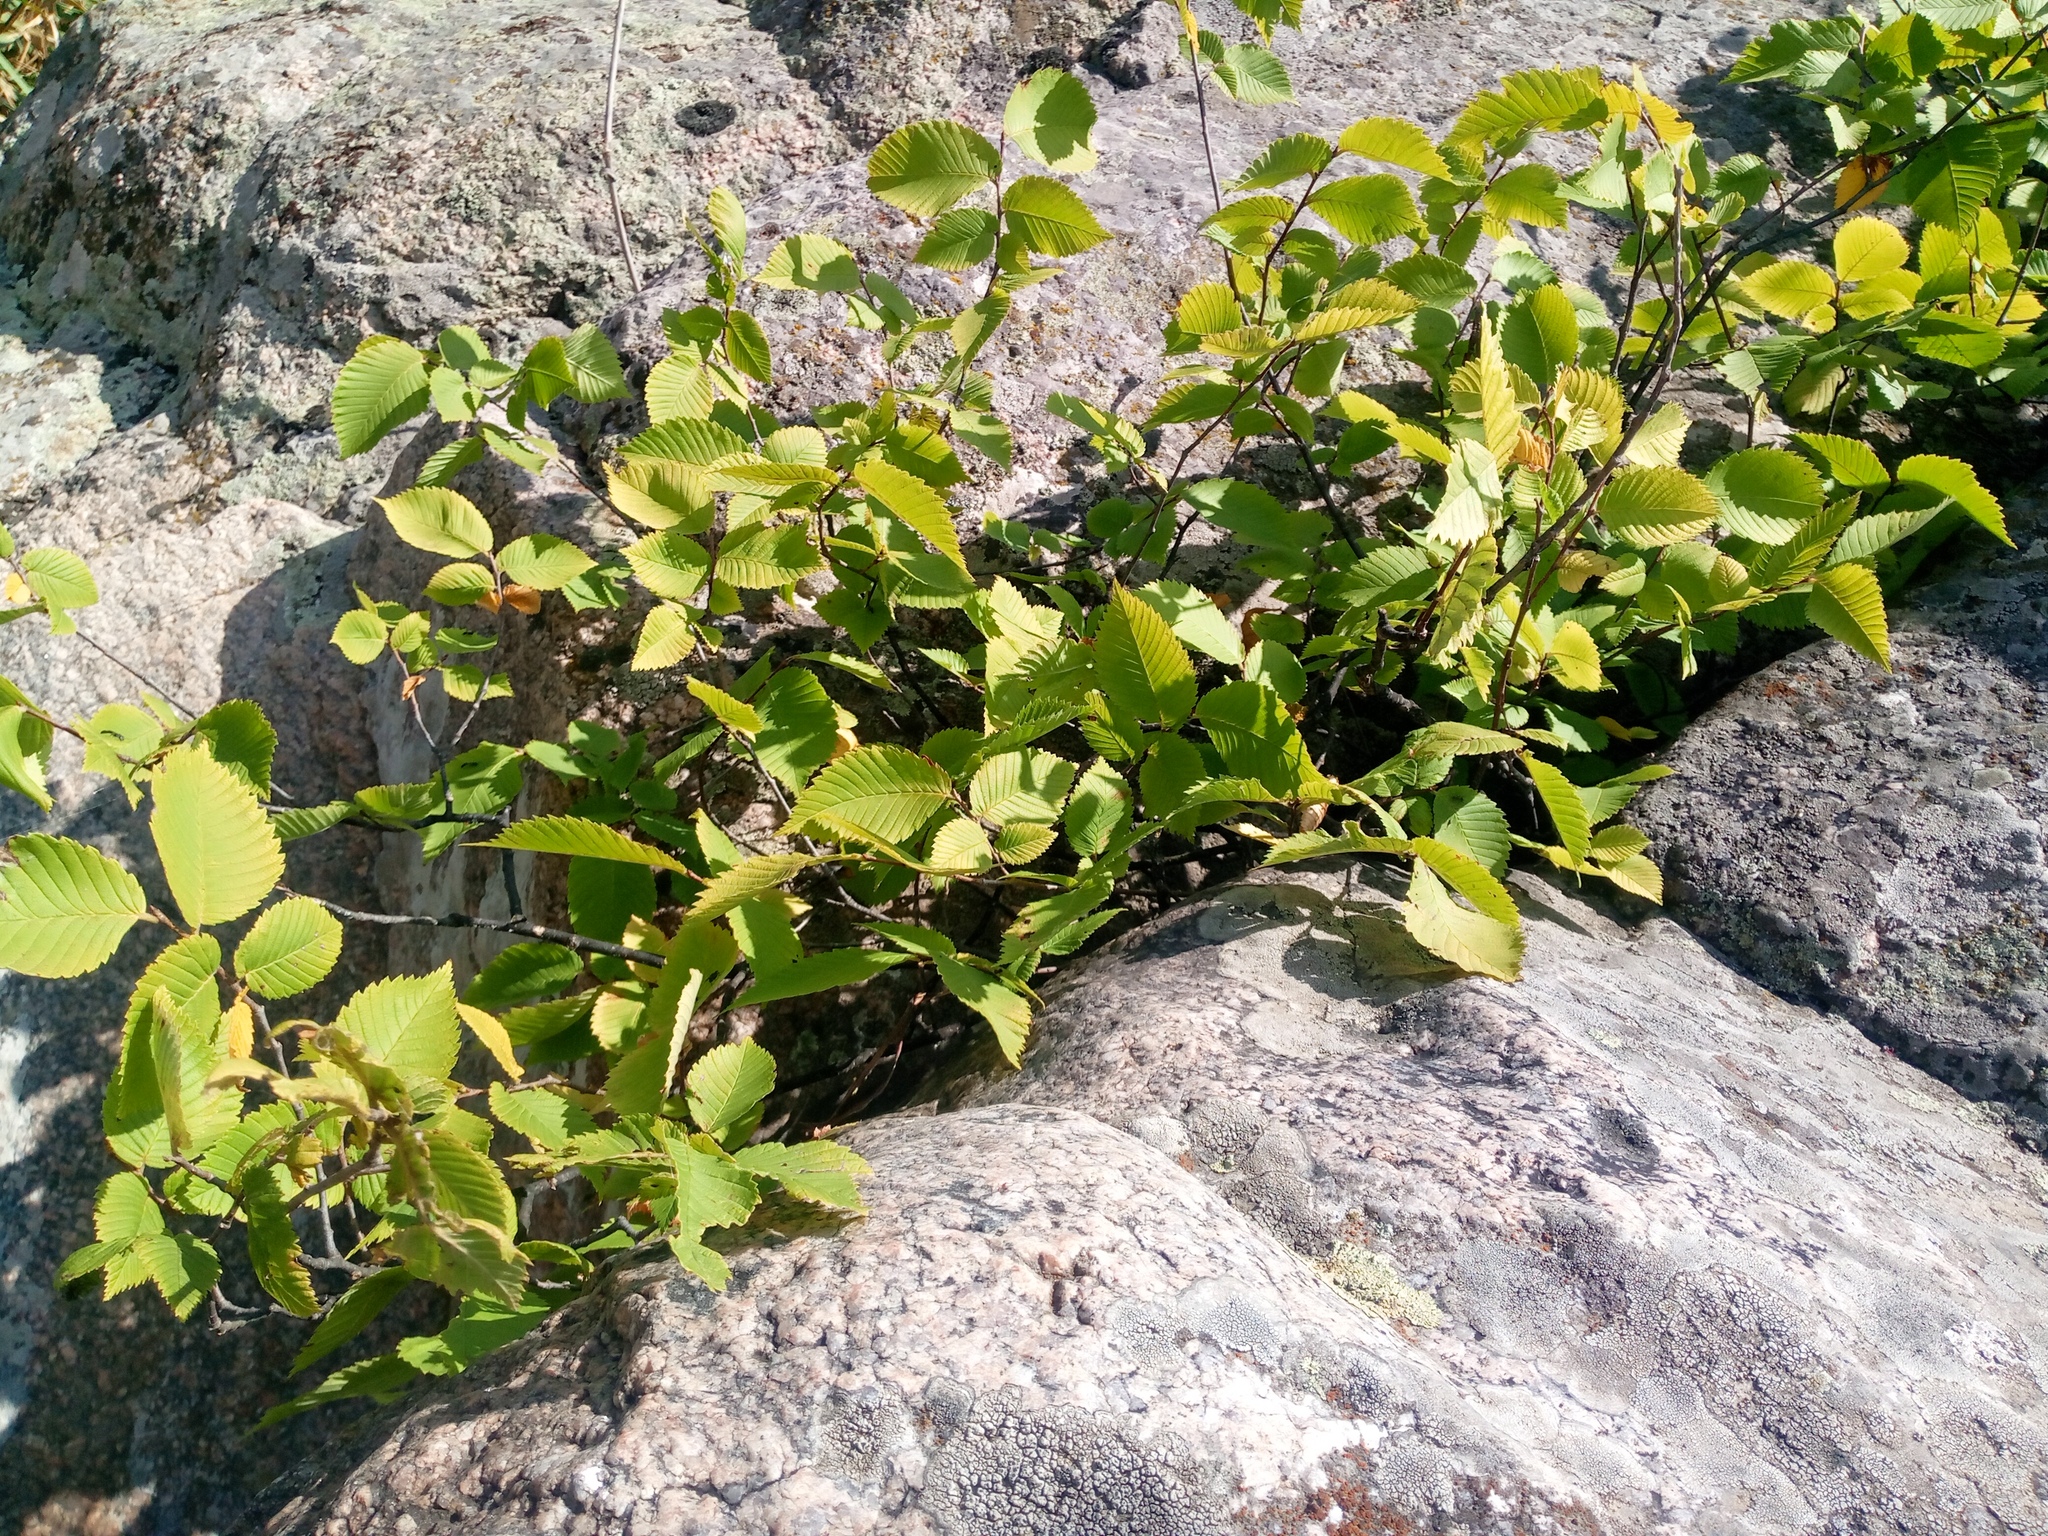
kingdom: Plantae
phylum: Tracheophyta
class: Magnoliopsida
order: Rosales
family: Ulmaceae
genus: Ulmus
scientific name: Ulmus minor
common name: Small-leaved elm
